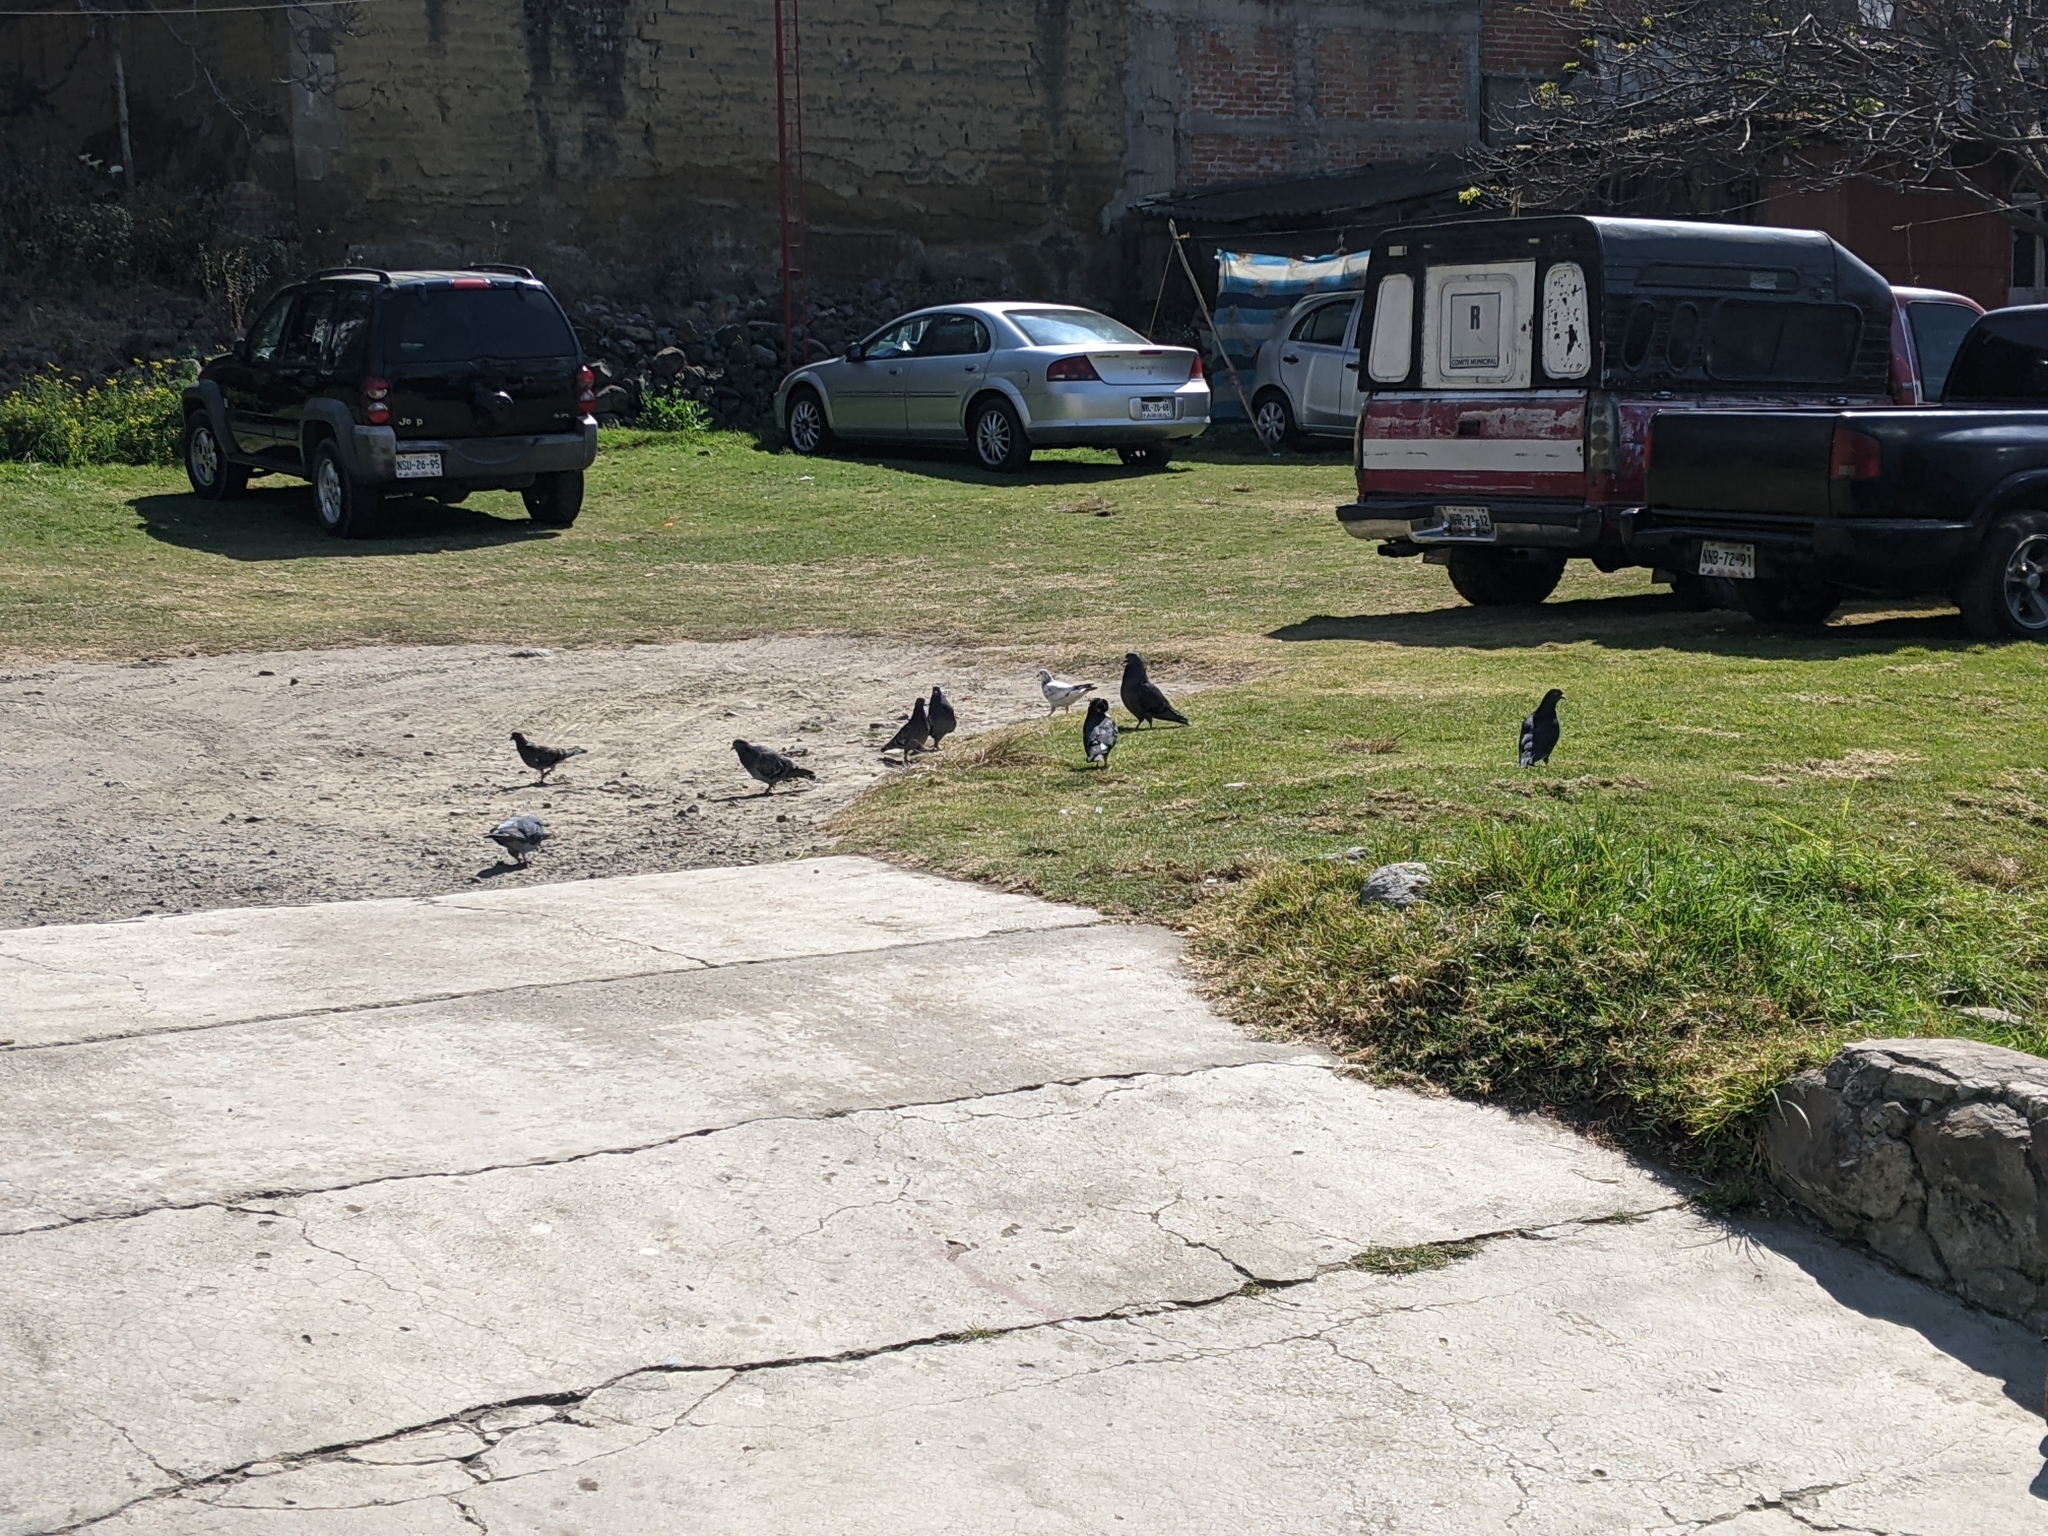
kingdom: Animalia
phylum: Chordata
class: Aves
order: Columbiformes
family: Columbidae
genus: Columba
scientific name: Columba livia
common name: Rock pigeon
